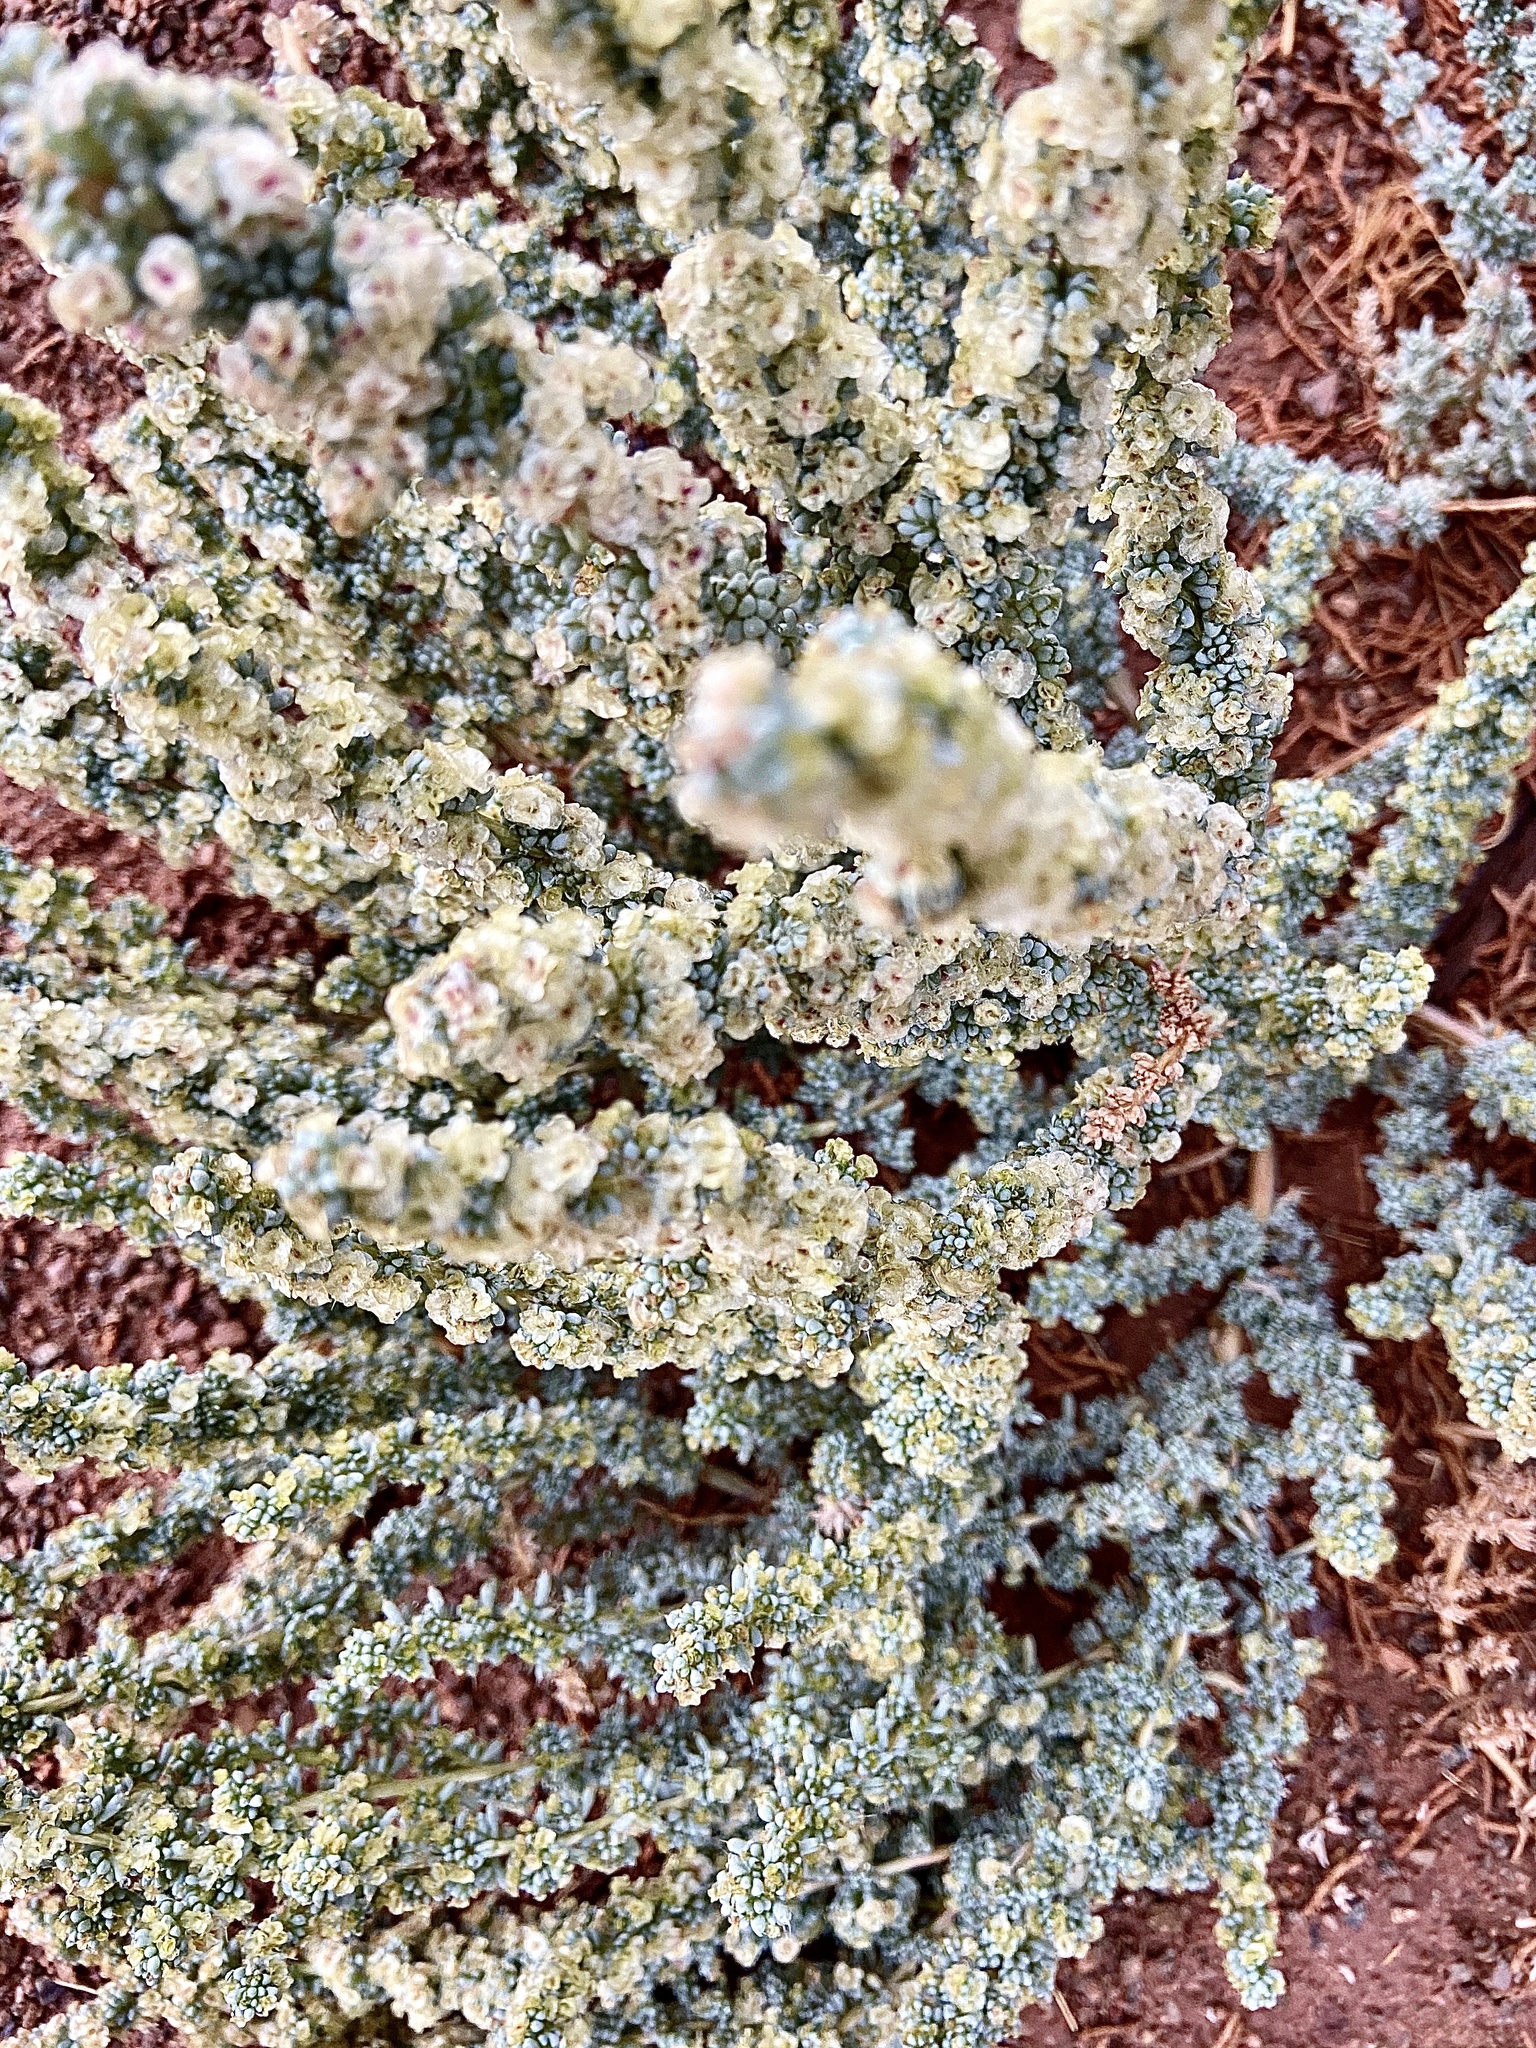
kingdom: Plantae
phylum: Tracheophyta
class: Magnoliopsida
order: Caryophyllales
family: Amaranthaceae
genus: Halogeton
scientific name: Halogeton glomeratus
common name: Saltlover
